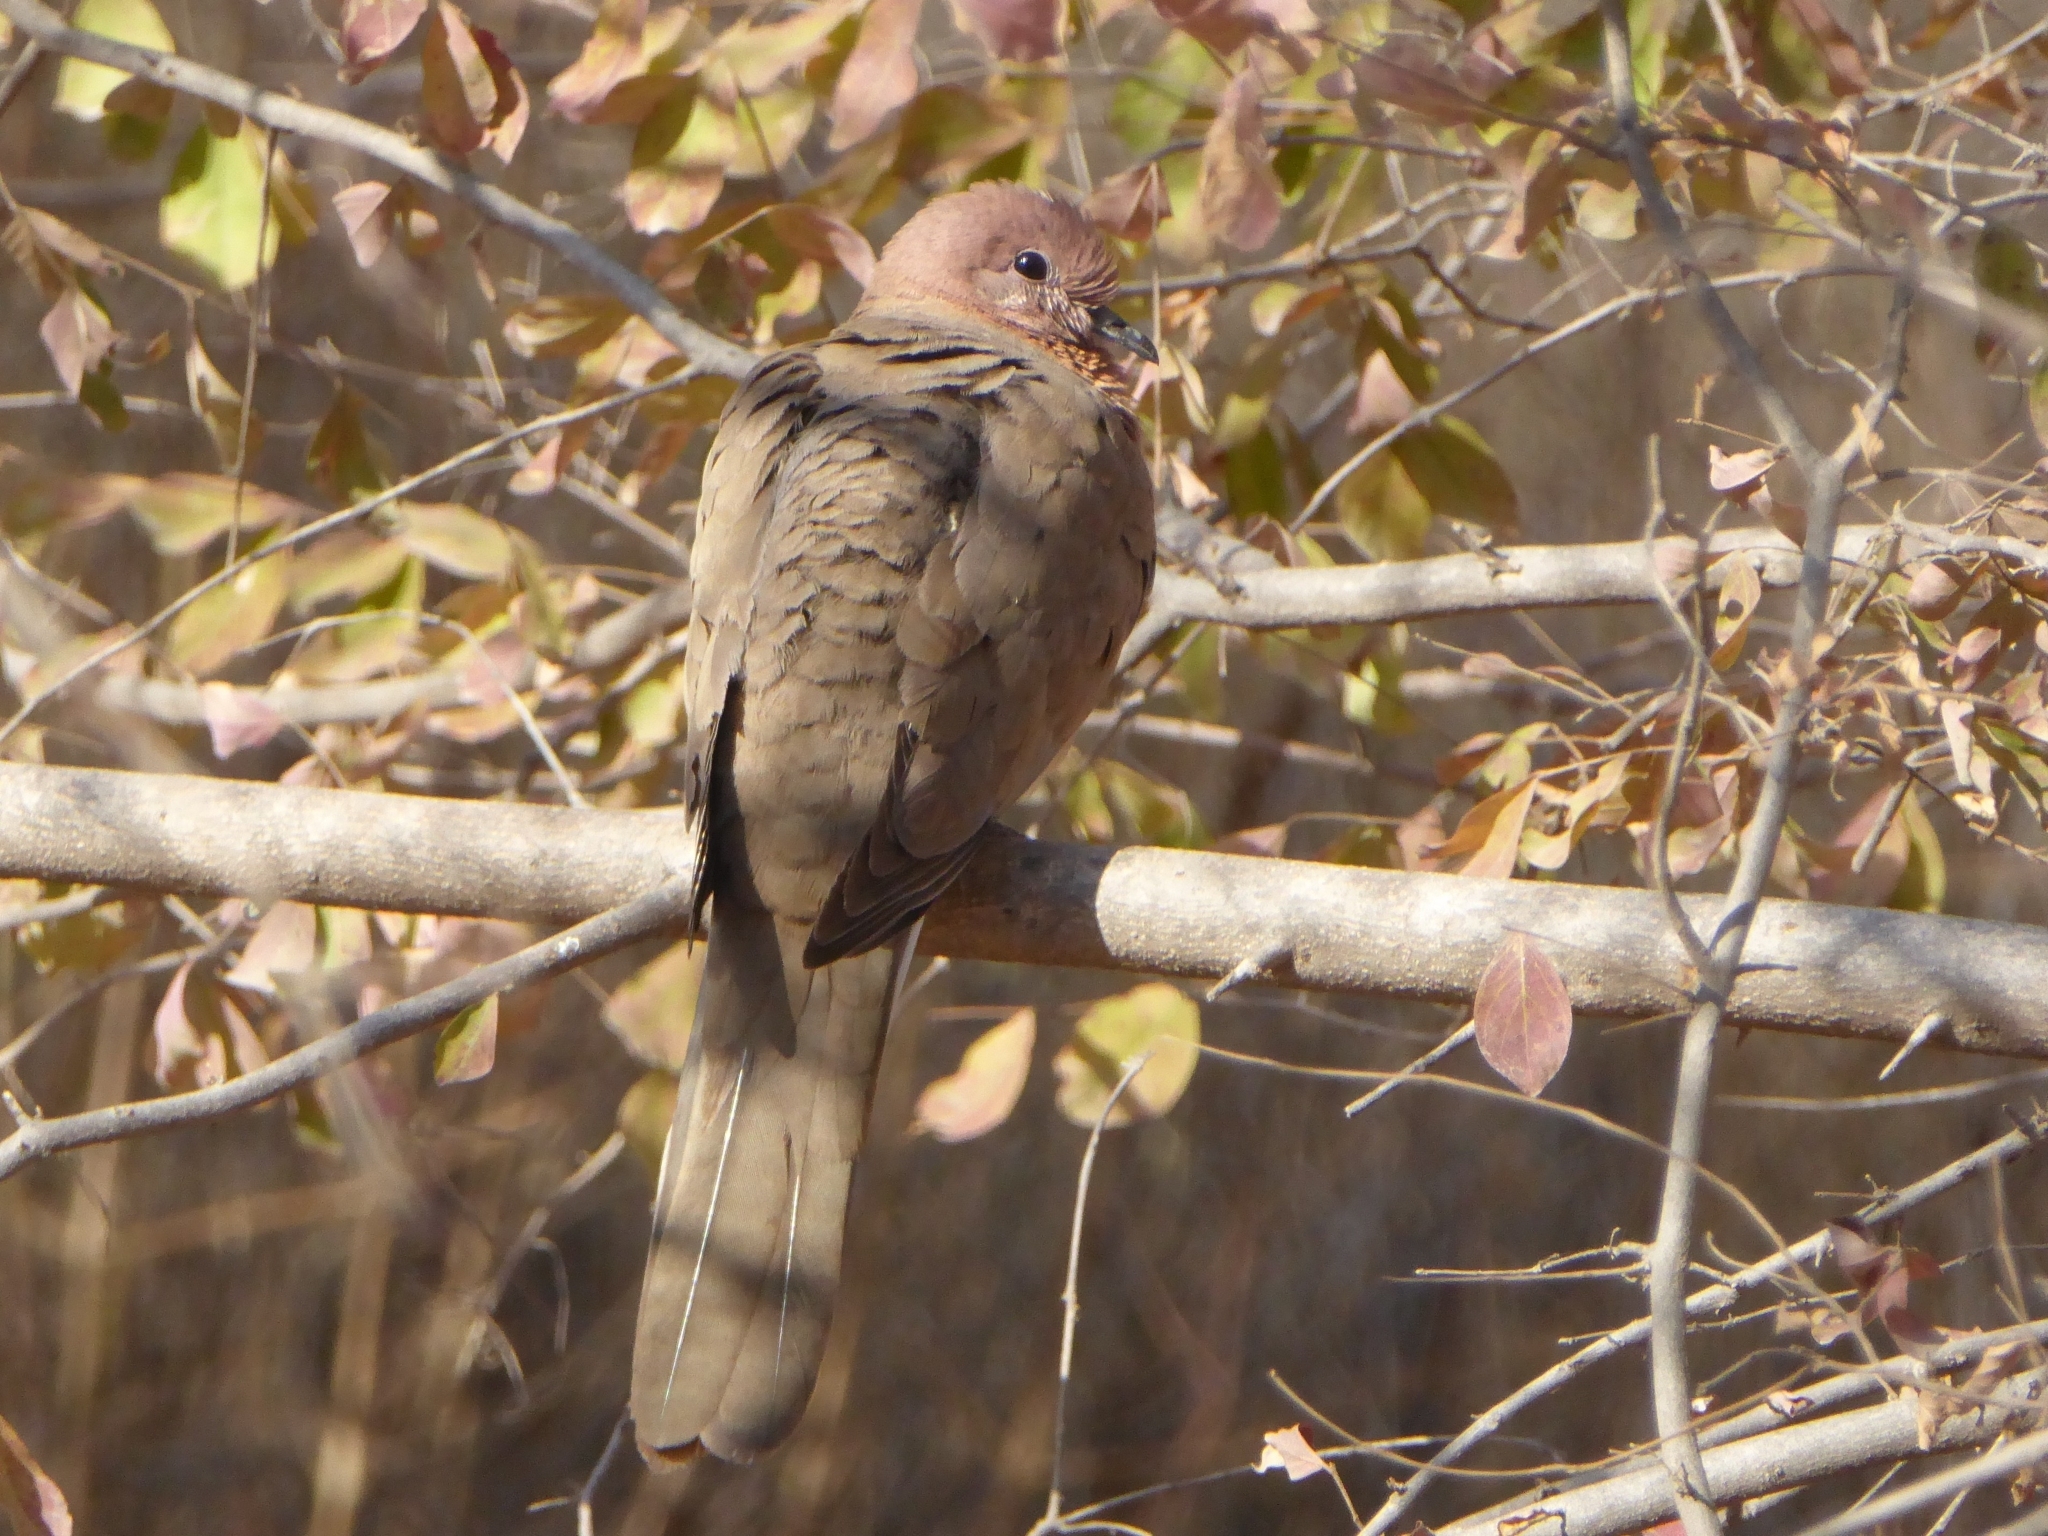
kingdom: Animalia
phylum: Chordata
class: Aves
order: Columbiformes
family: Columbidae
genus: Spilopelia
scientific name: Spilopelia senegalensis
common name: Laughing dove
